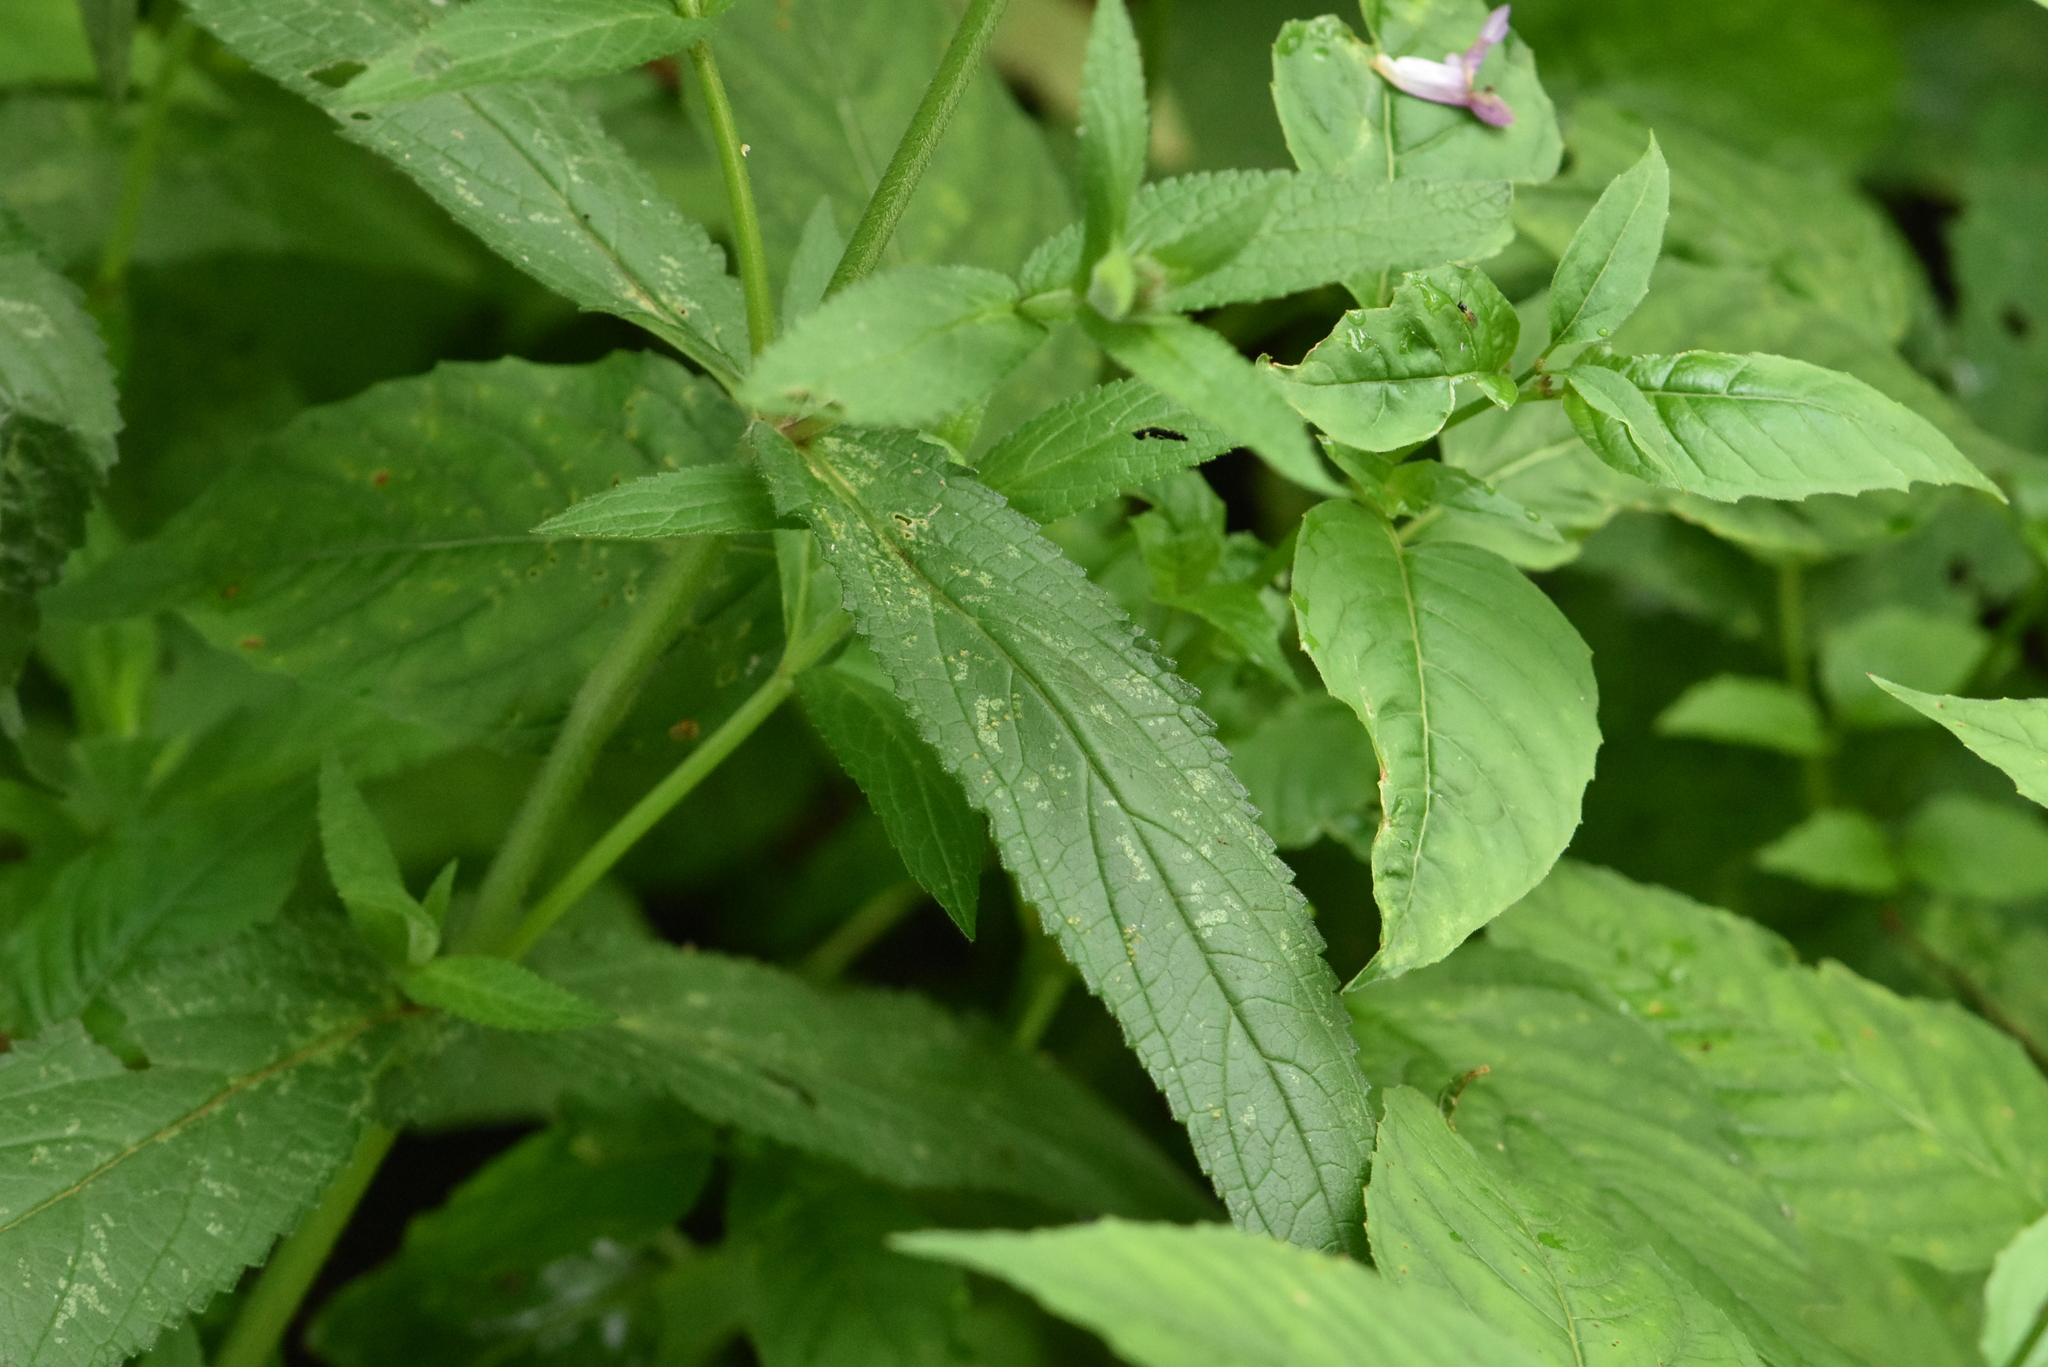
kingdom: Plantae
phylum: Tracheophyta
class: Magnoliopsida
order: Lamiales
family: Lamiaceae
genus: Stachys
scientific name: Stachys palustris
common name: Marsh woundwort
